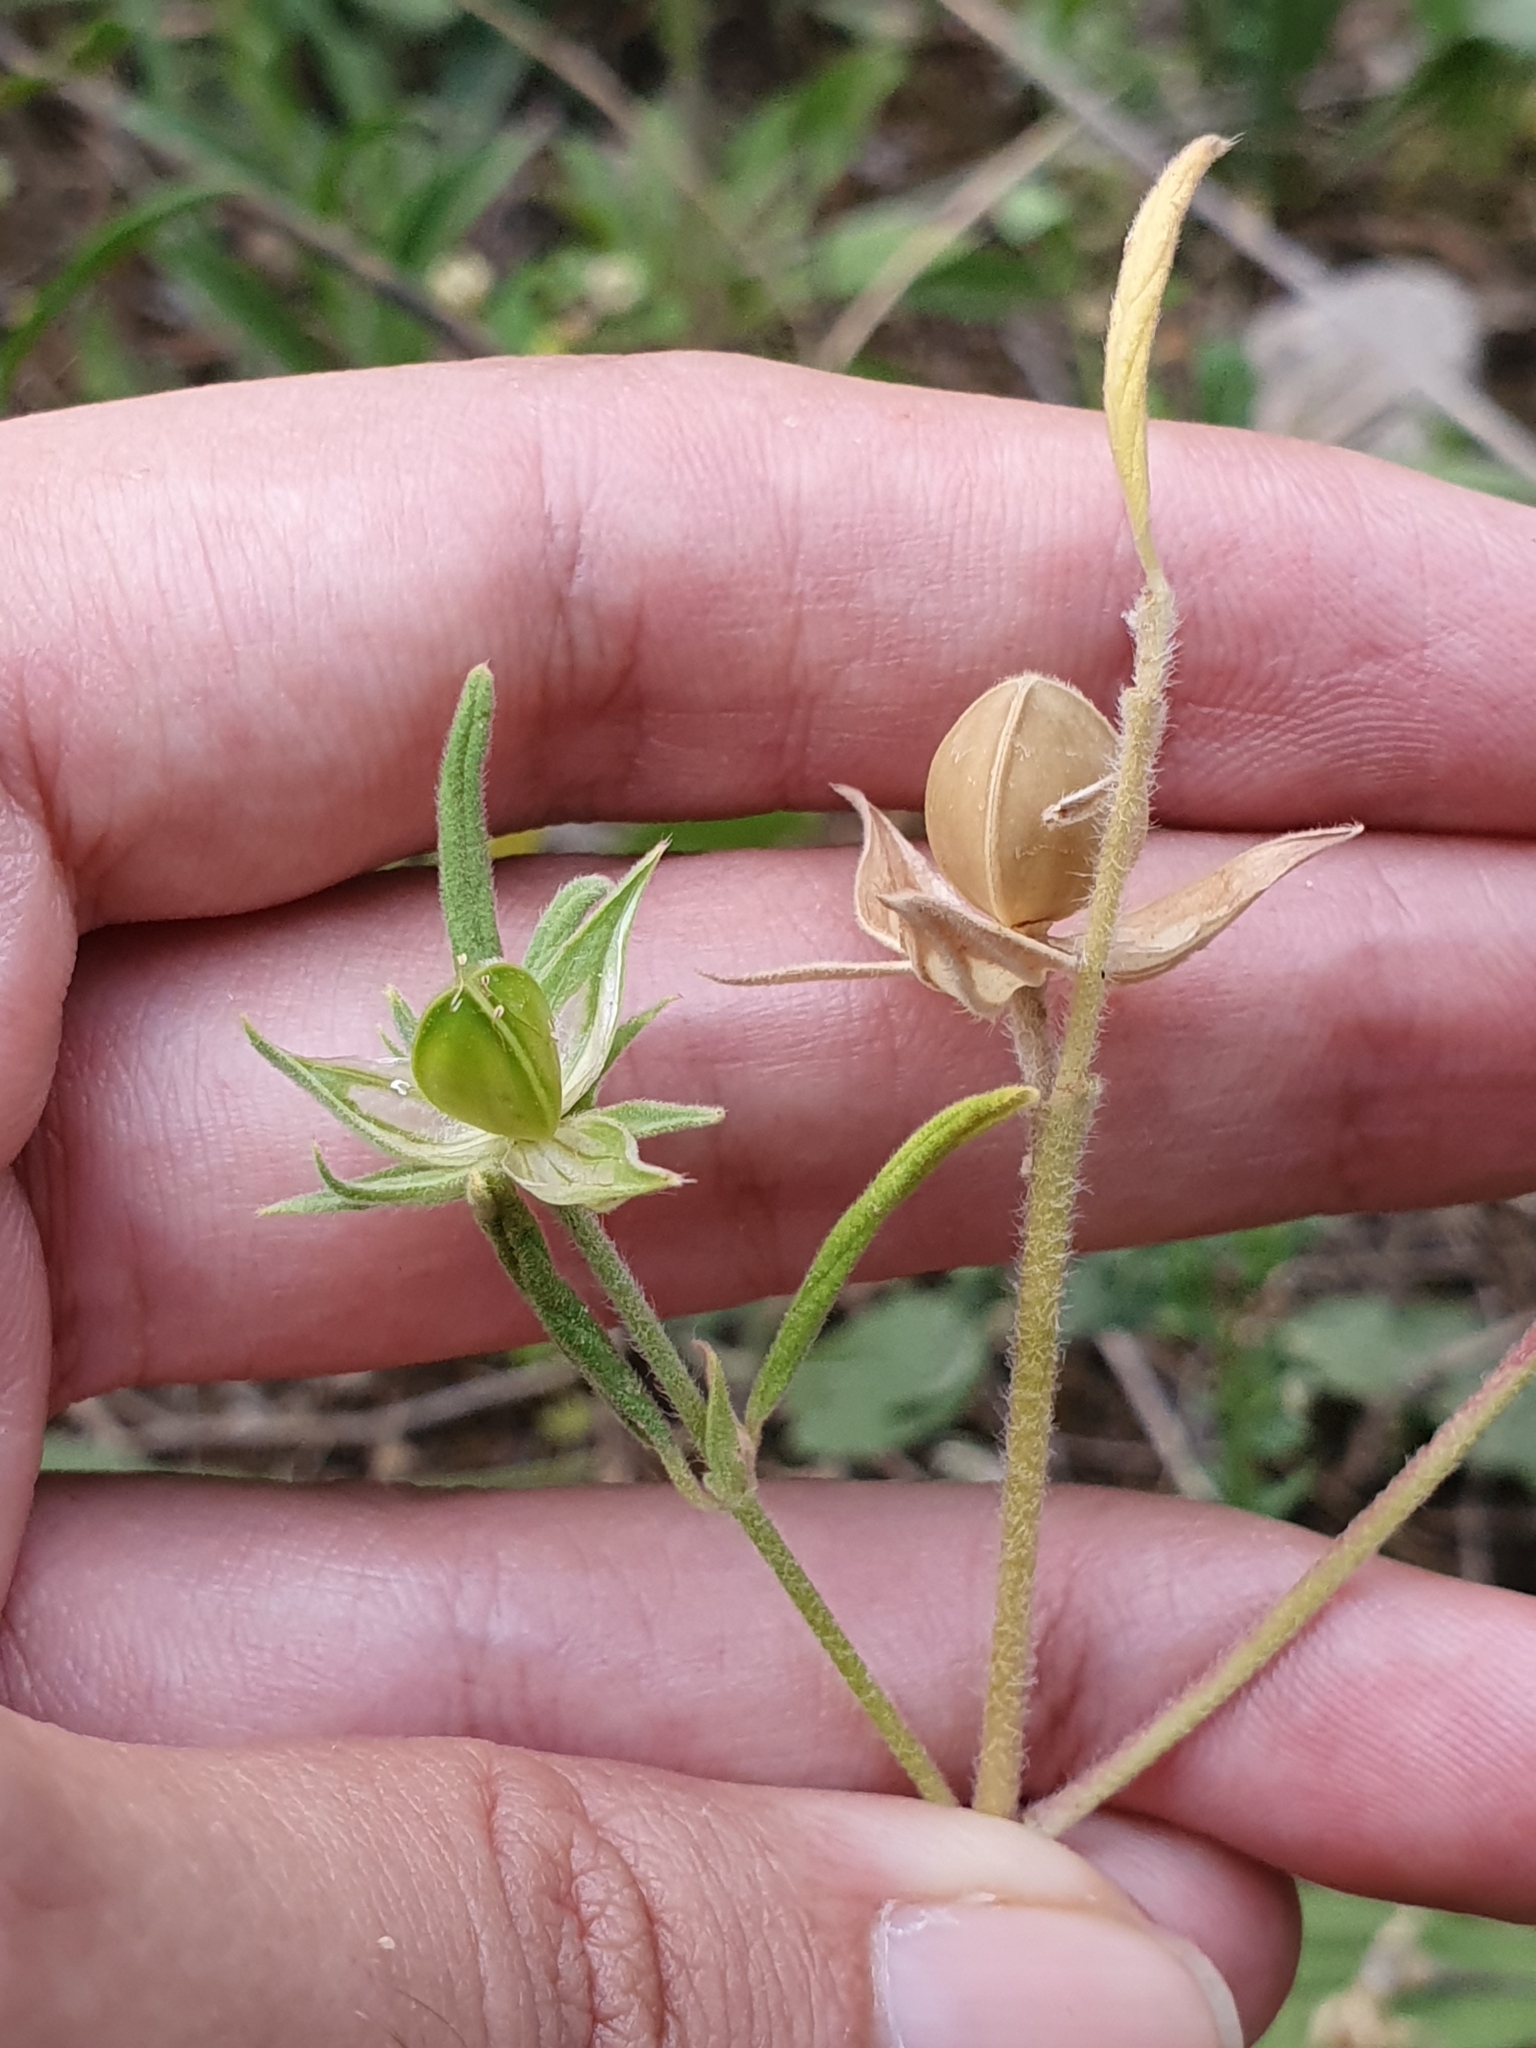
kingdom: Plantae
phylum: Tracheophyta
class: Magnoliopsida
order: Malvales
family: Cistaceae
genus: Helianthemum
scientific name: Helianthemum ledifolium
